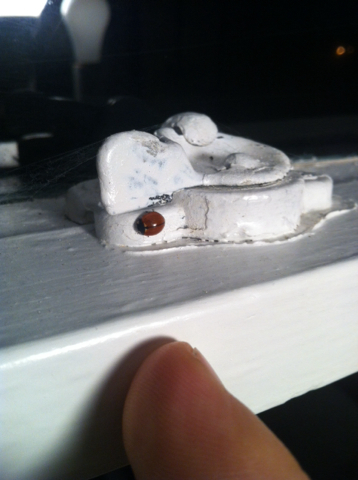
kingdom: Animalia
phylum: Arthropoda
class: Insecta
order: Coleoptera
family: Coccinellidae
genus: Coccinella
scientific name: Coccinella californica
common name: Lady beetle
